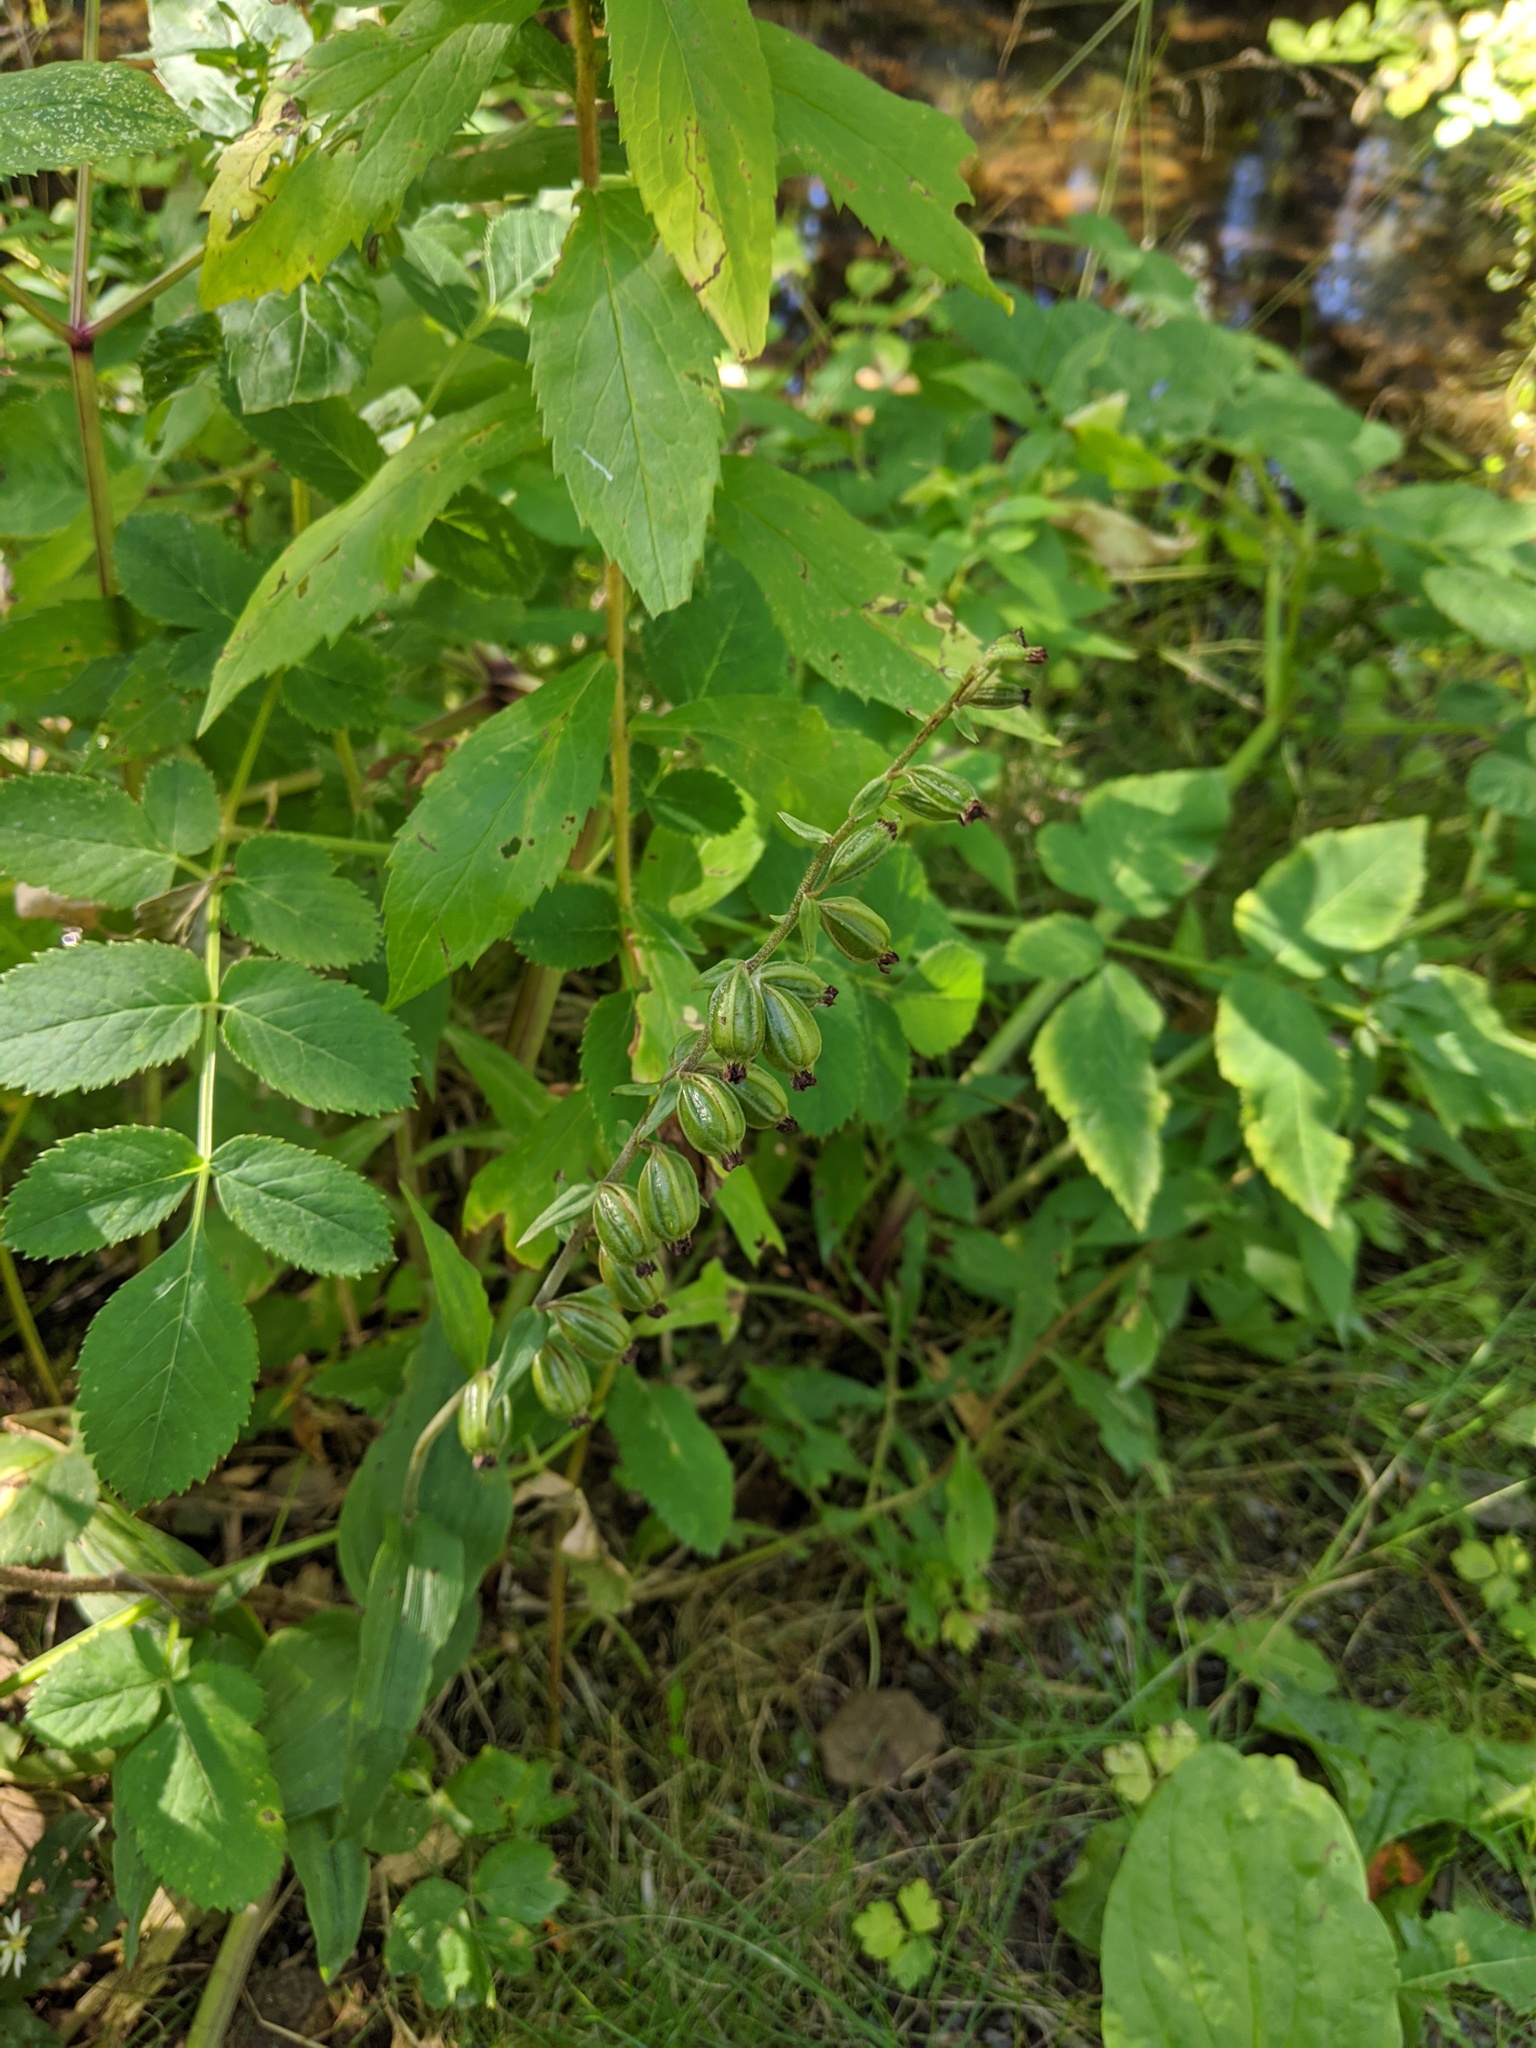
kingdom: Plantae
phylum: Tracheophyta
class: Liliopsida
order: Asparagales
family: Orchidaceae
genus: Epipactis
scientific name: Epipactis helleborine
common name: Broad-leaved helleborine
